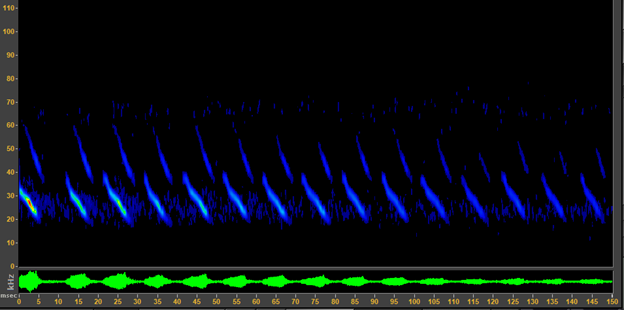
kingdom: Animalia
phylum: Chordata
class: Mammalia
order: Chiroptera
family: Vespertilionidae
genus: Corynorhinus
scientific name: Corynorhinus townsendii
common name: Townsend's big-eared bat
